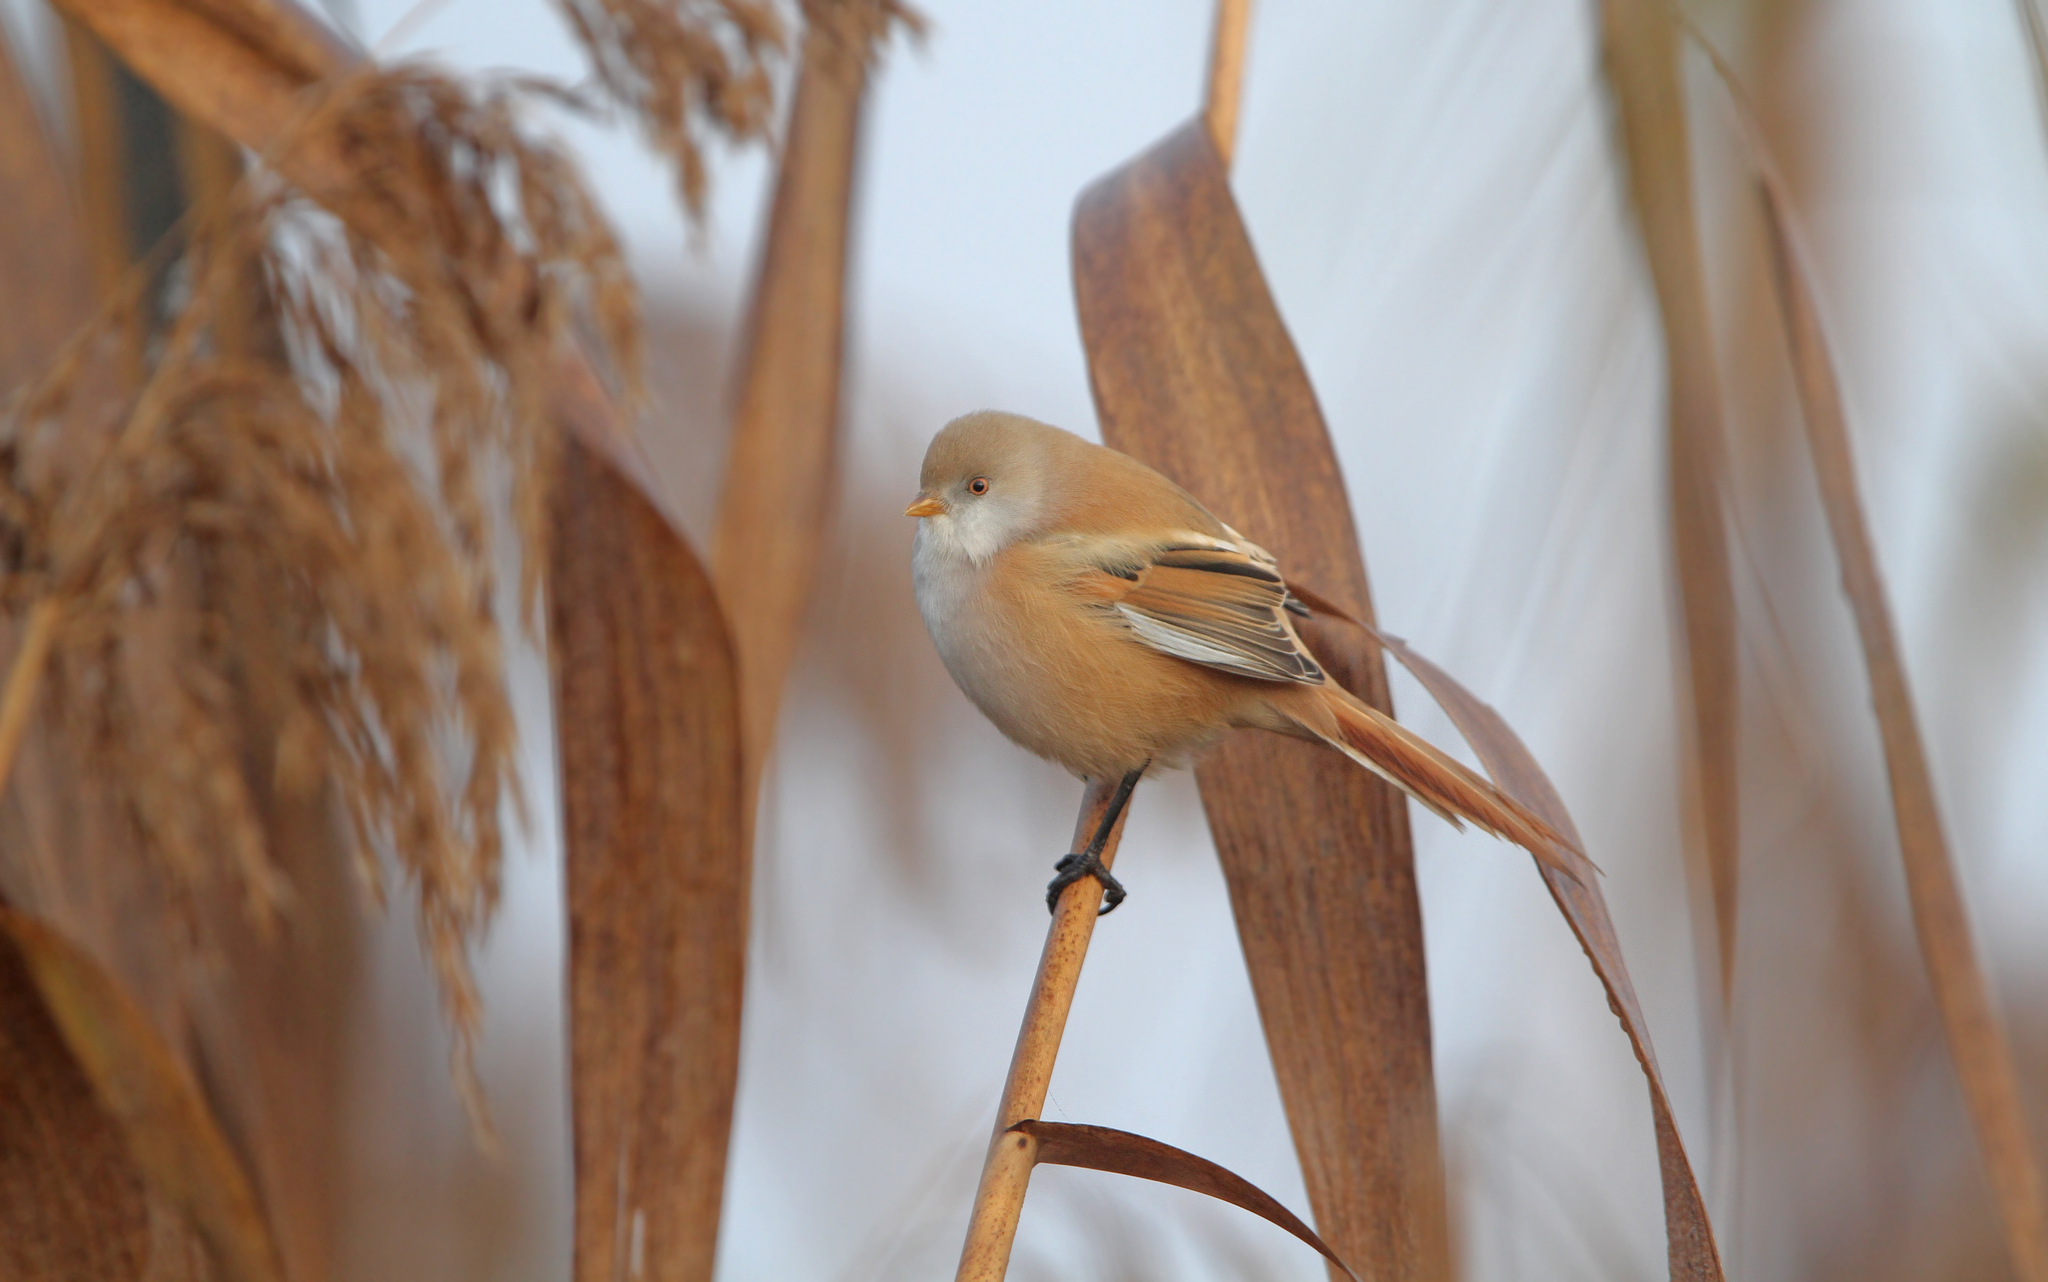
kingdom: Animalia
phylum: Chordata
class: Aves
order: Passeriformes
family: Panuridae
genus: Panurus
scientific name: Panurus biarmicus
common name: Bearded reedling
